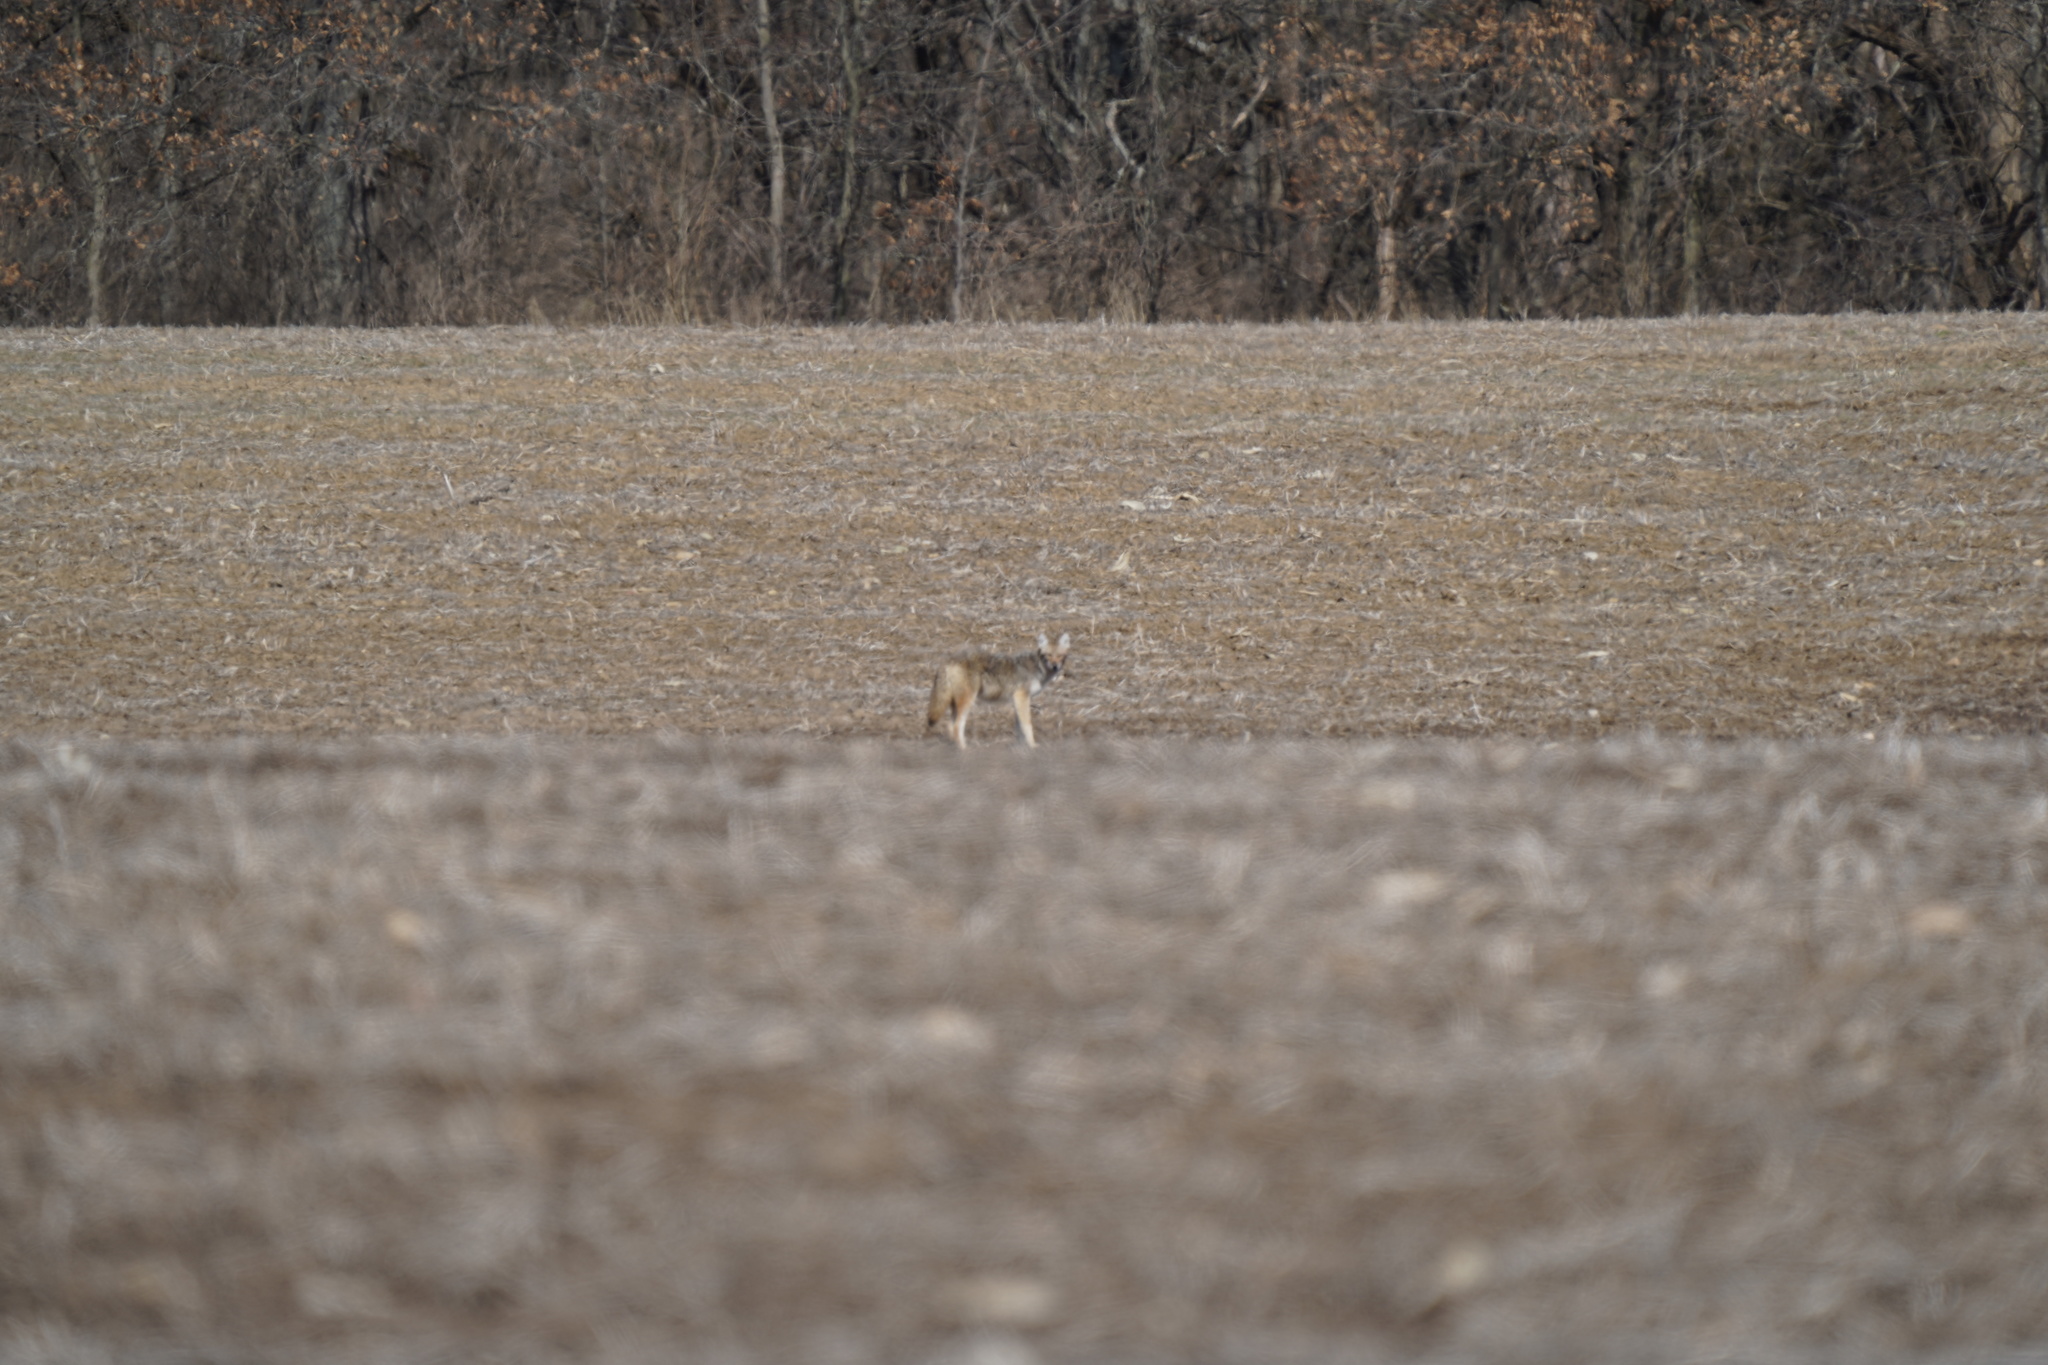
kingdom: Animalia
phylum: Chordata
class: Mammalia
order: Carnivora
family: Canidae
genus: Canis
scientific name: Canis latrans
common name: Coyote
